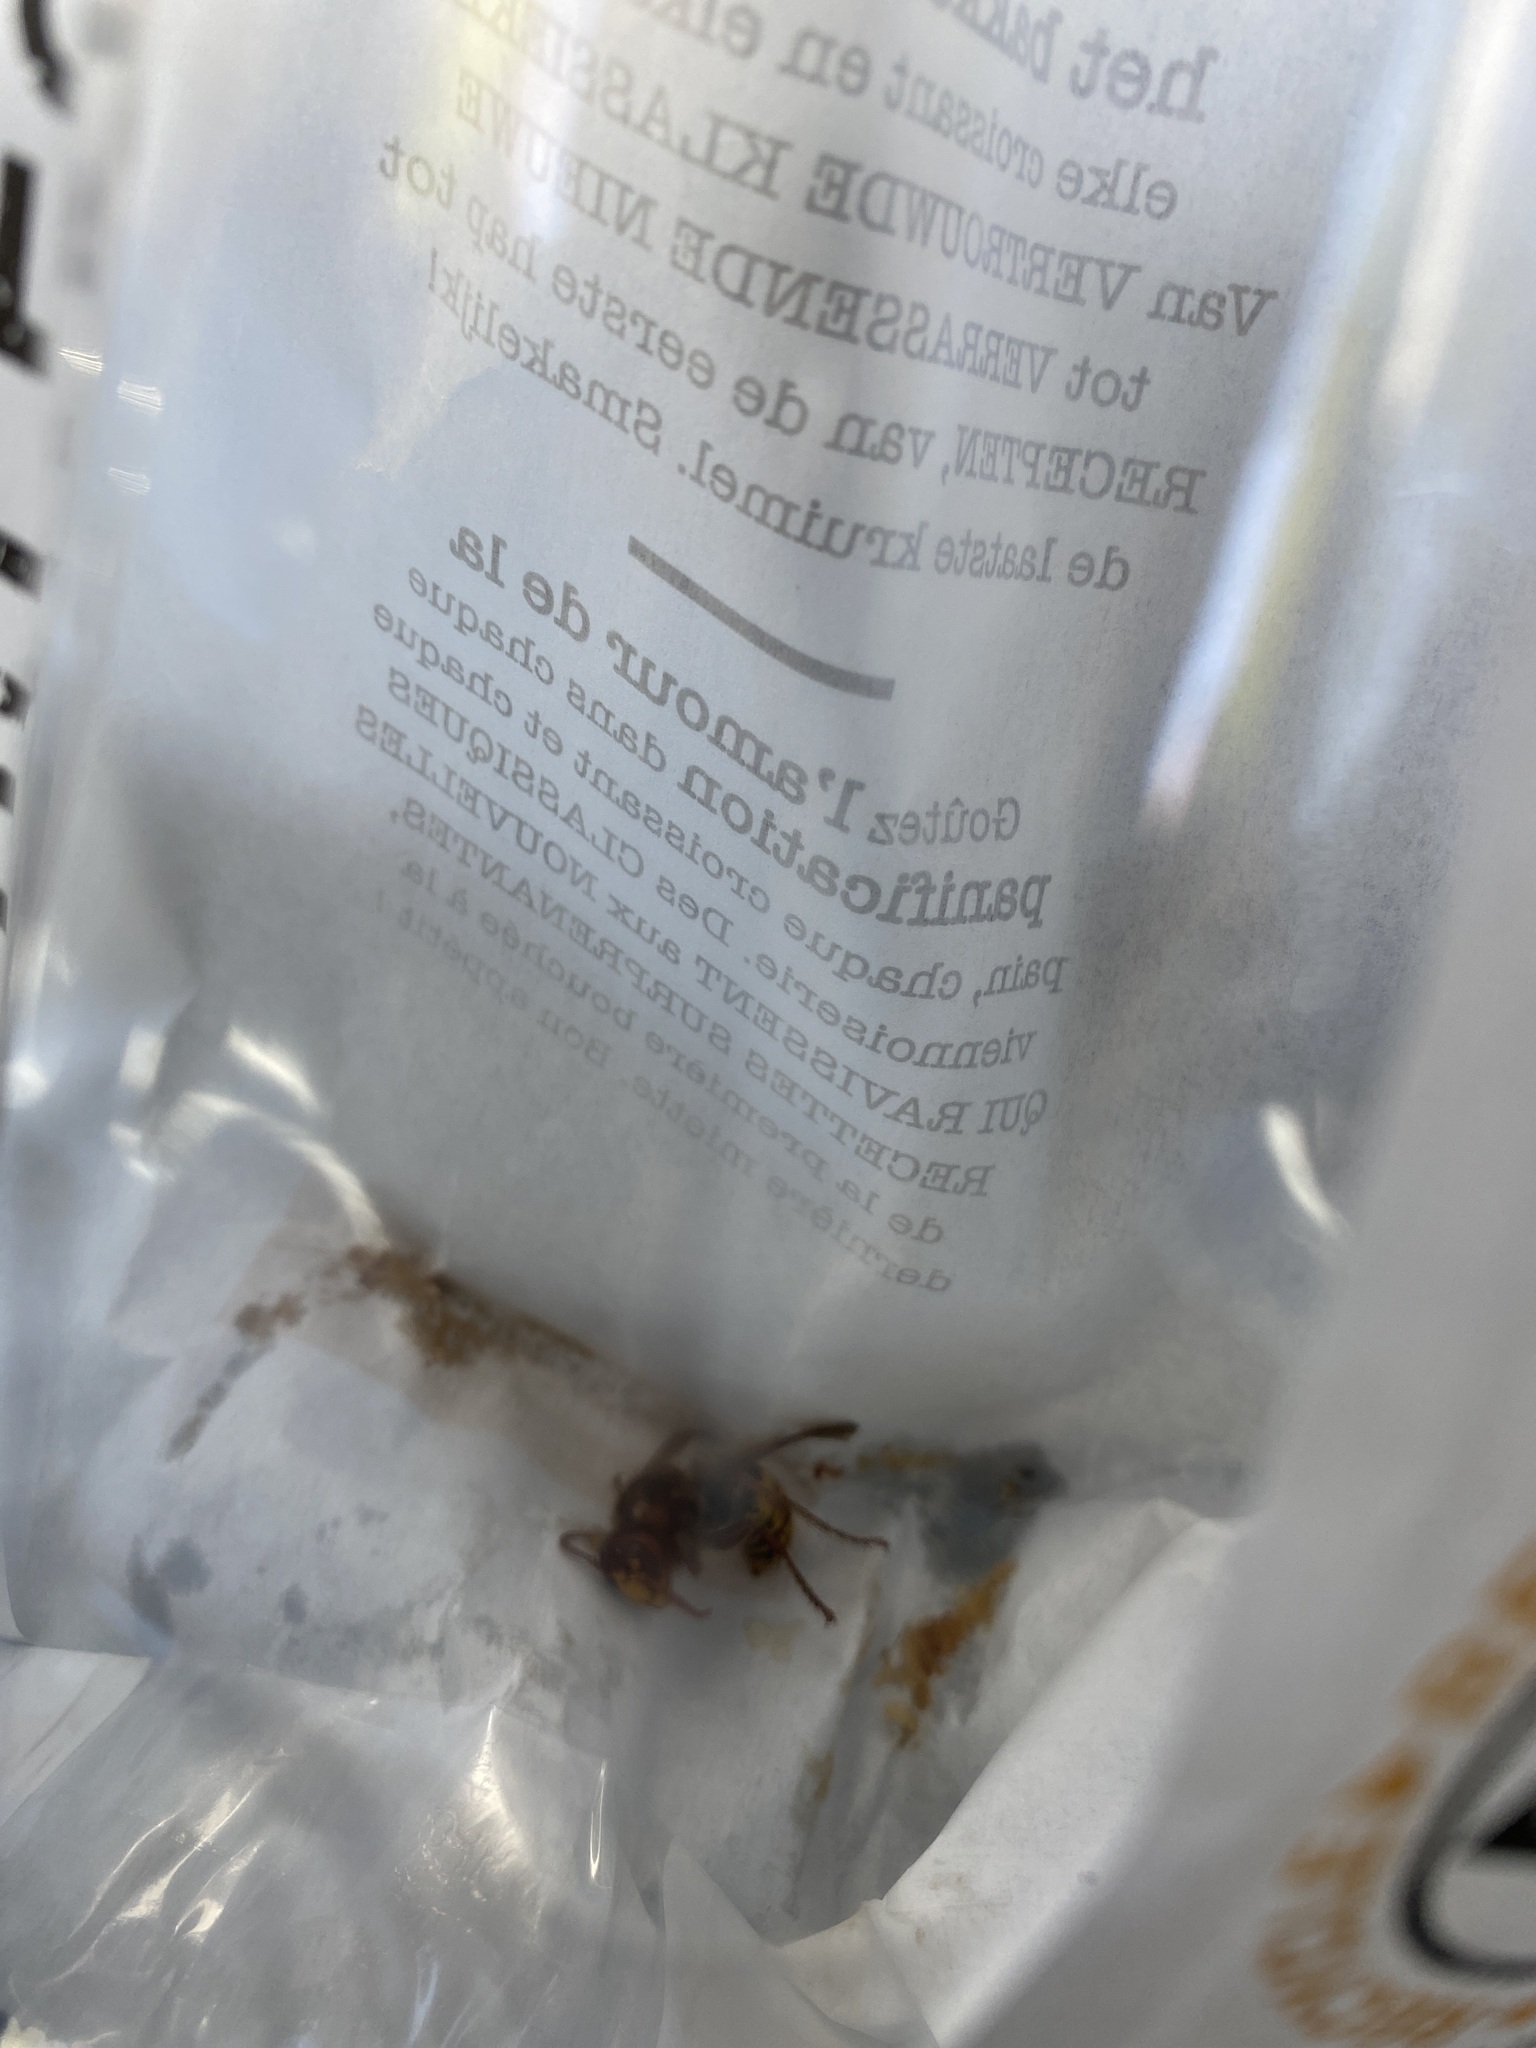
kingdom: Animalia
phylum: Arthropoda
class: Insecta
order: Hymenoptera
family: Vespidae
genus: Vespa
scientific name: Vespa crabro
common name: Hornet
